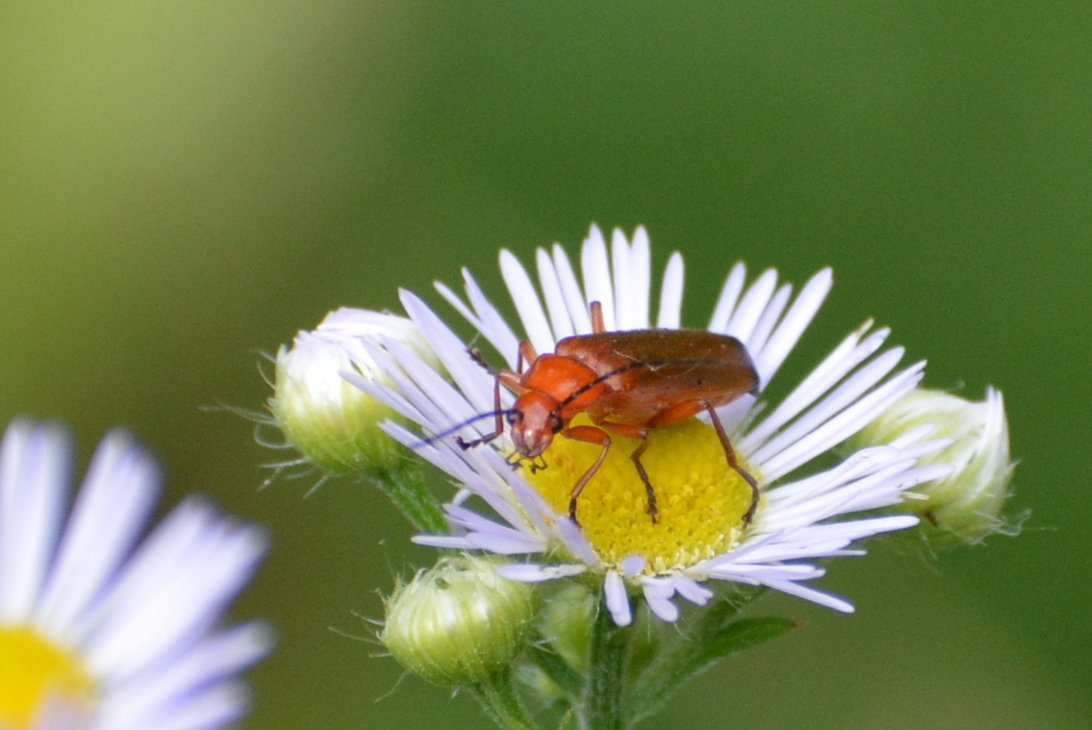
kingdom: Animalia
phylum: Arthropoda
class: Insecta
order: Coleoptera
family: Cantharidae
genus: Rhagonycha
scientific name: Rhagonycha fulva
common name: Common red soldier beetle
